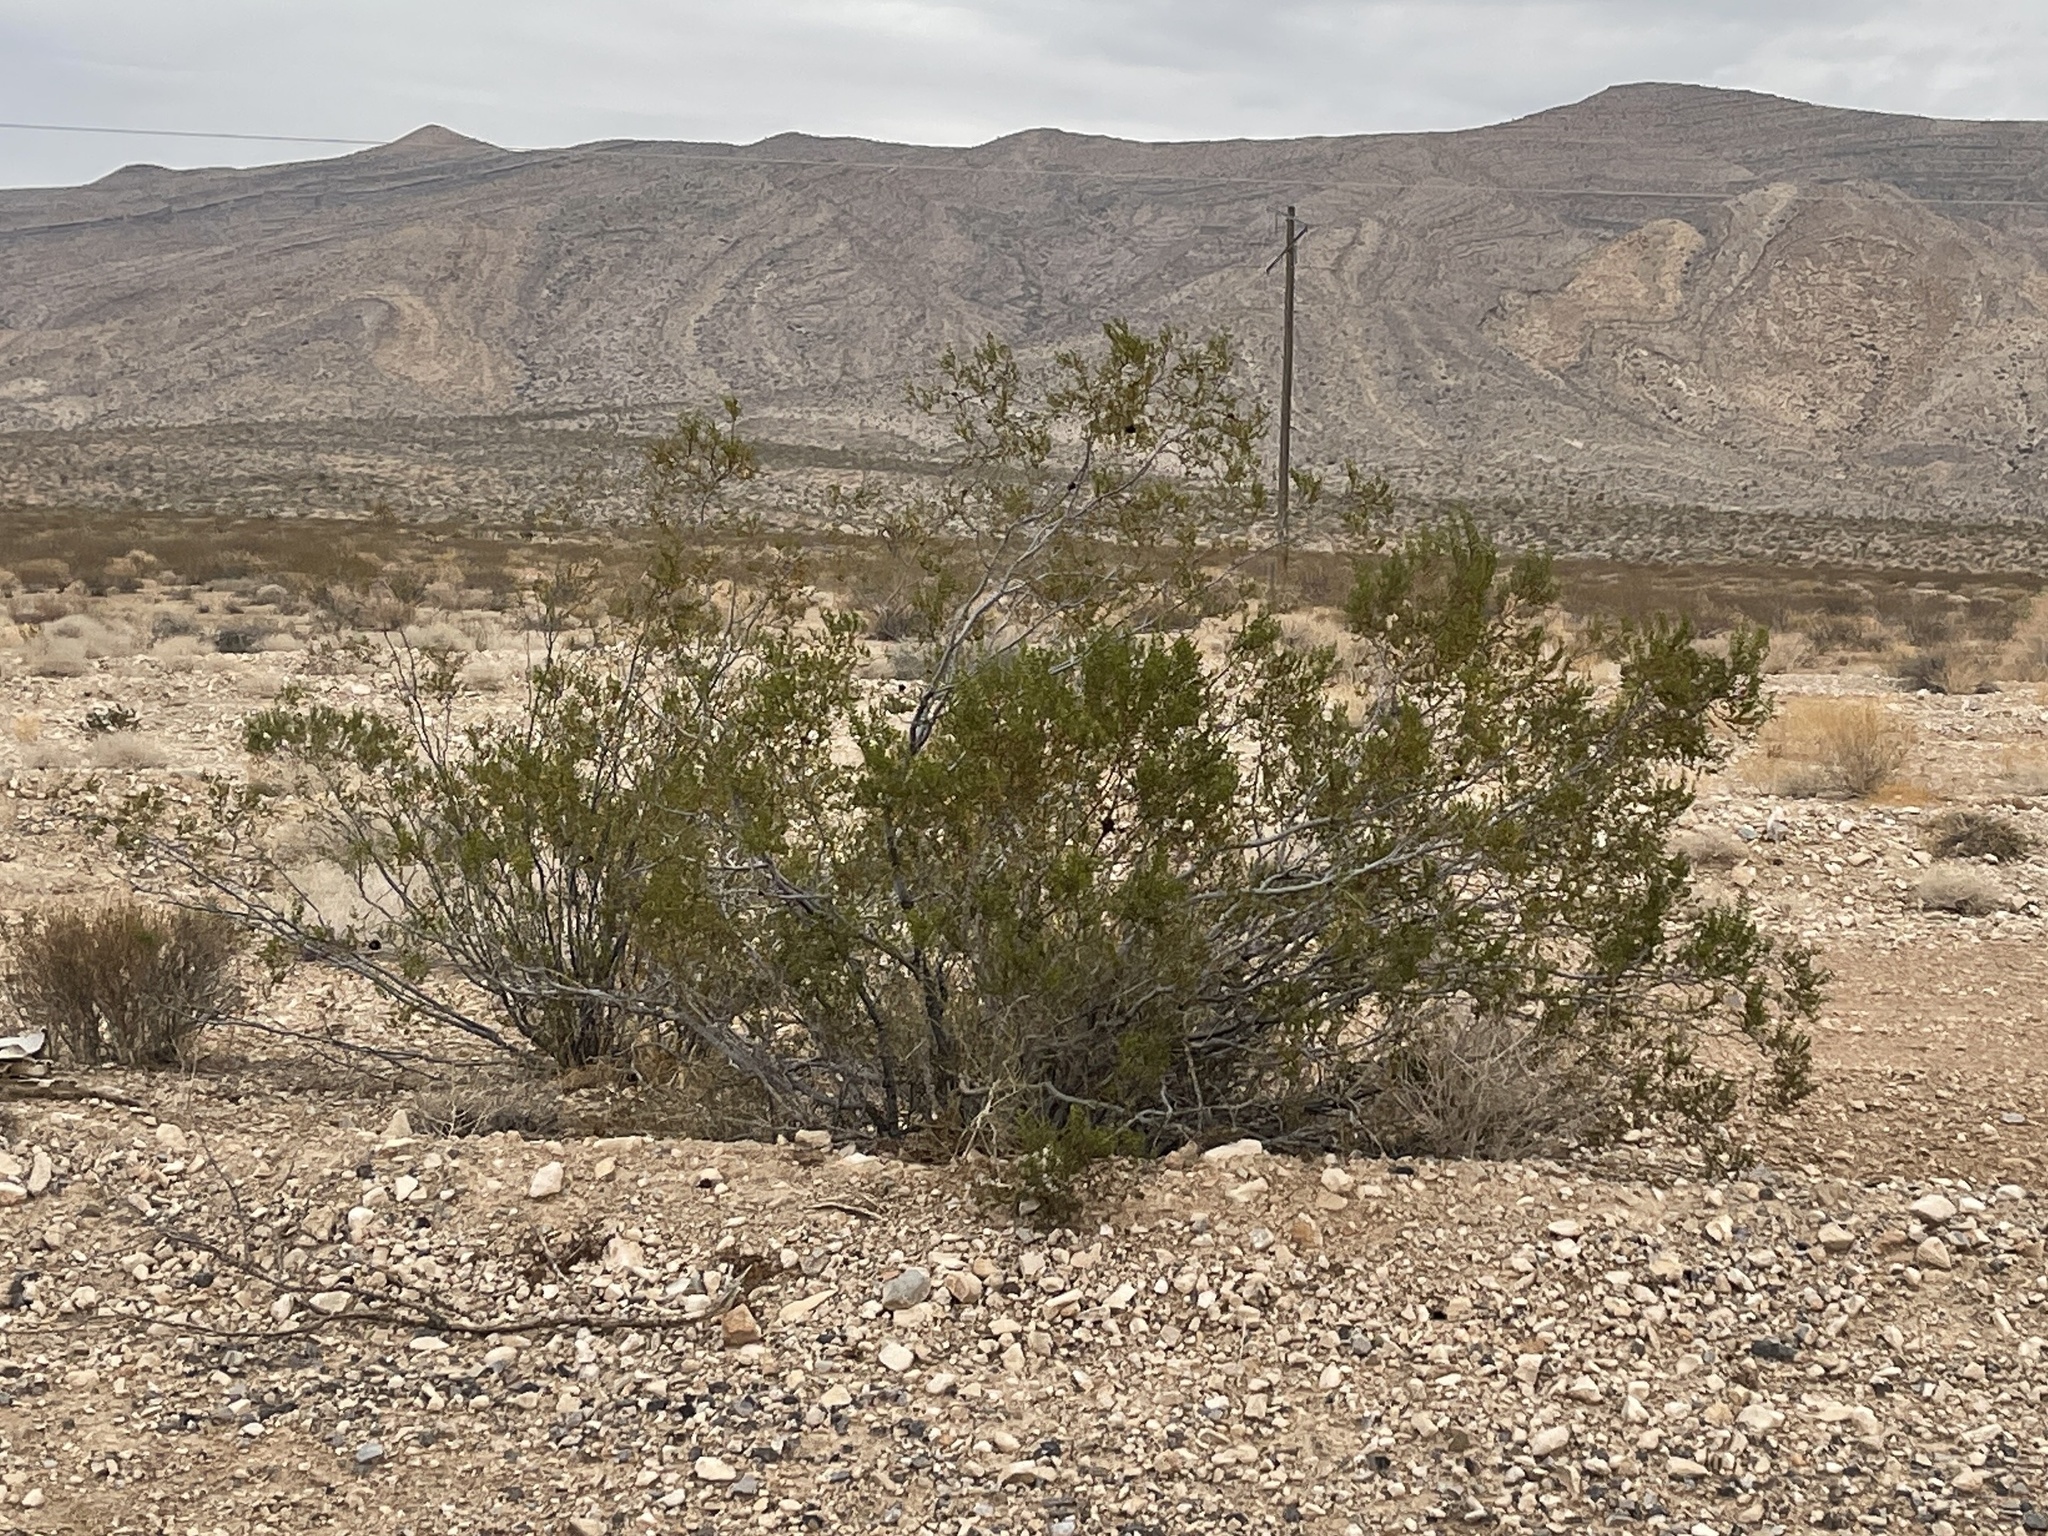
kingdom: Plantae
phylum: Tracheophyta
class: Magnoliopsida
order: Zygophyllales
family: Zygophyllaceae
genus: Larrea
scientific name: Larrea tridentata
